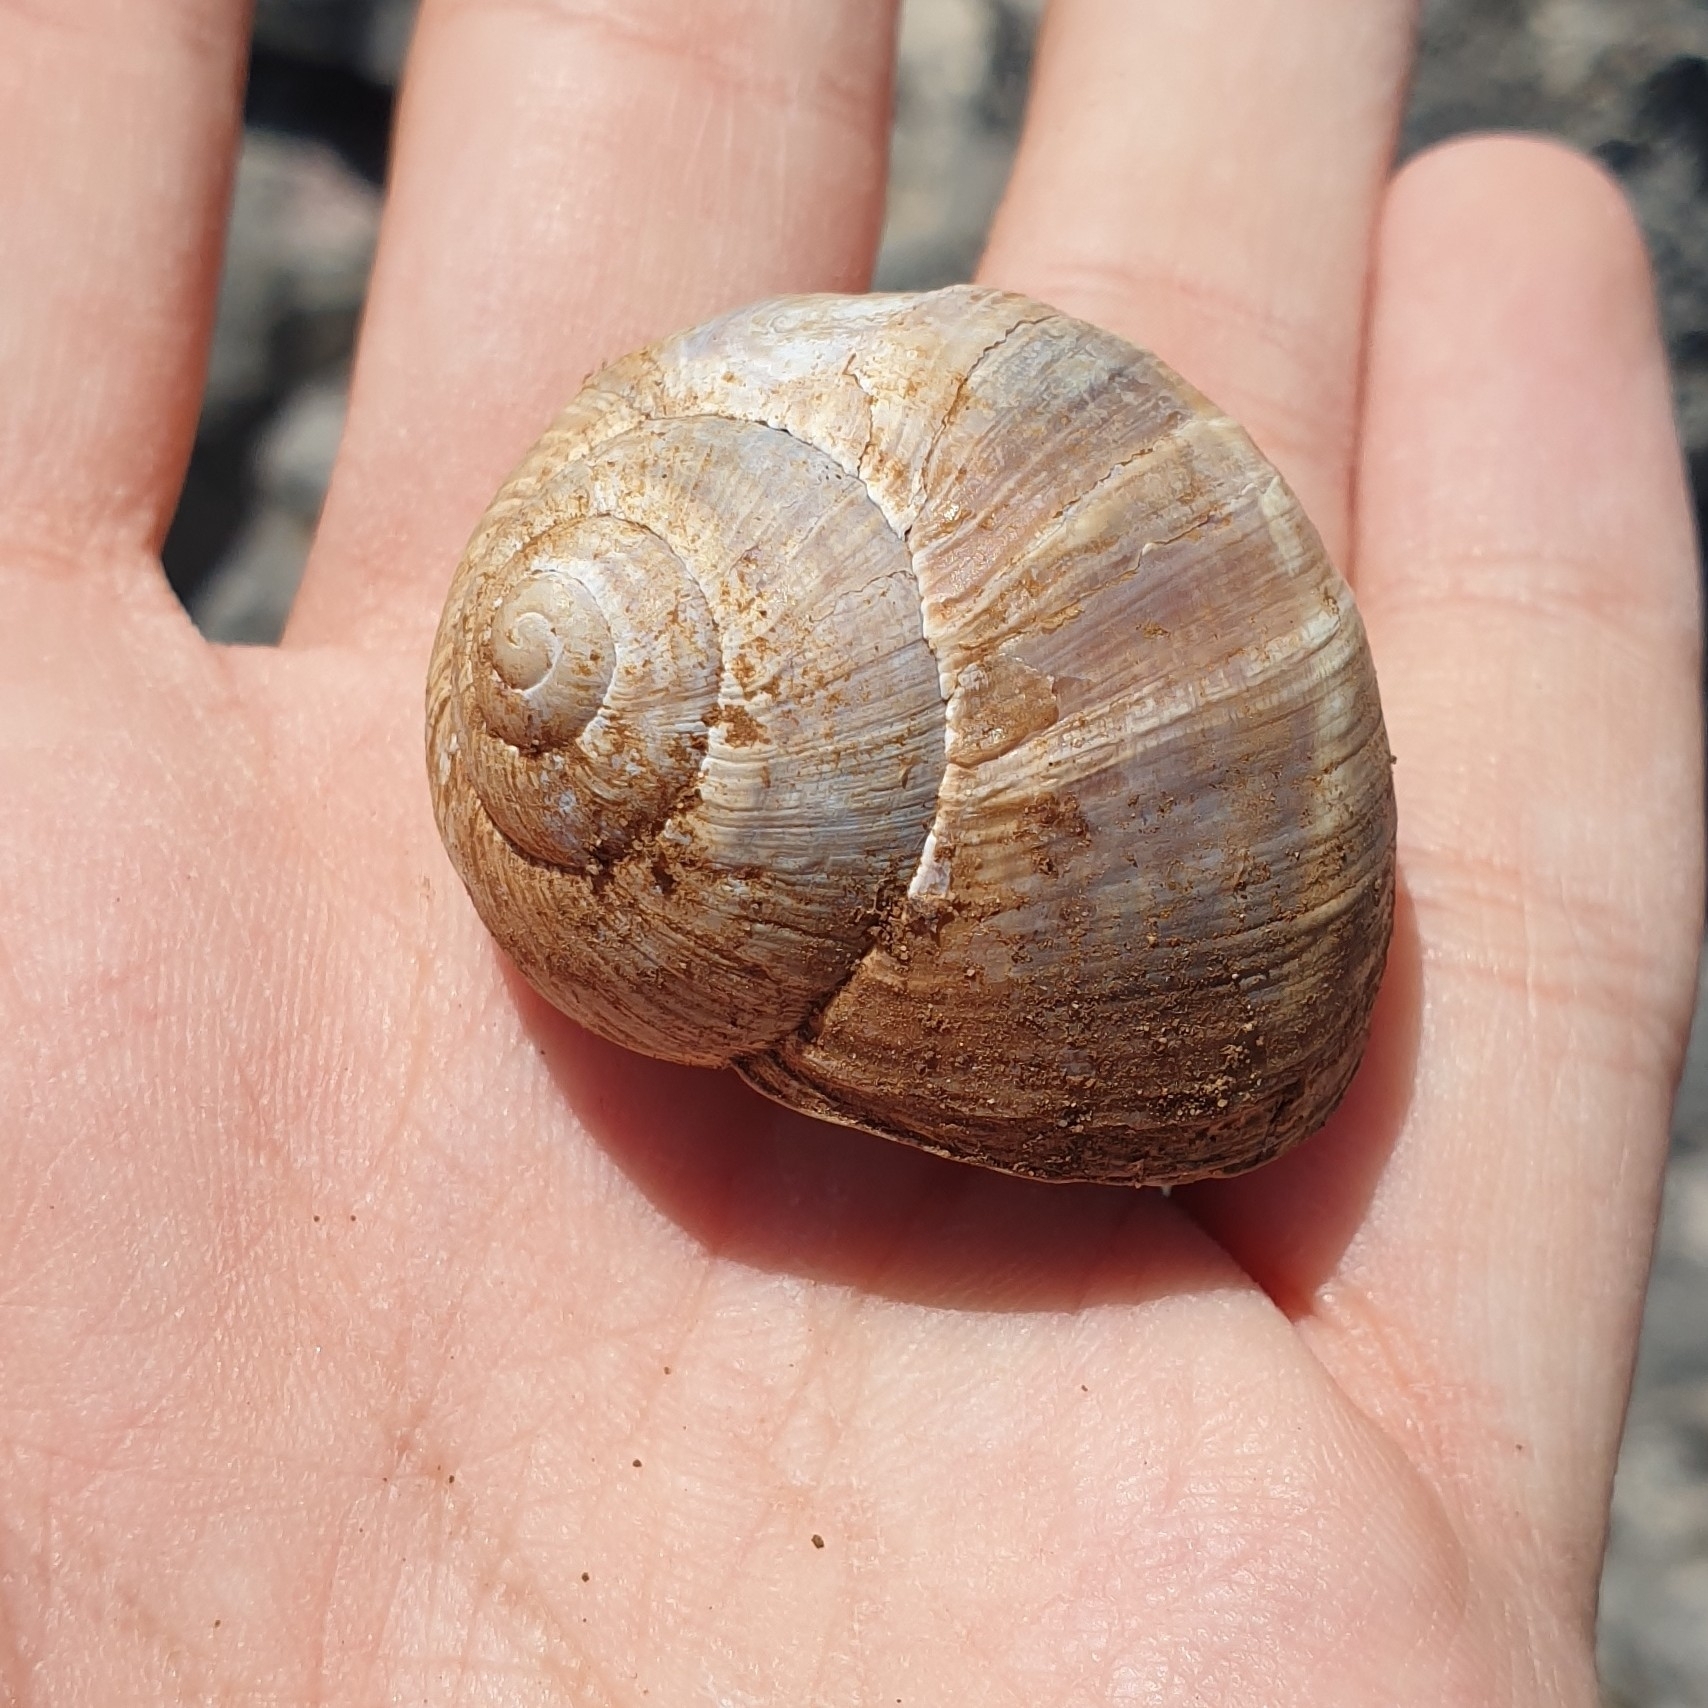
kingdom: Animalia
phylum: Mollusca
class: Gastropoda
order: Stylommatophora
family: Helicidae
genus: Helix
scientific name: Helix cincta
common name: Greek banded snail
